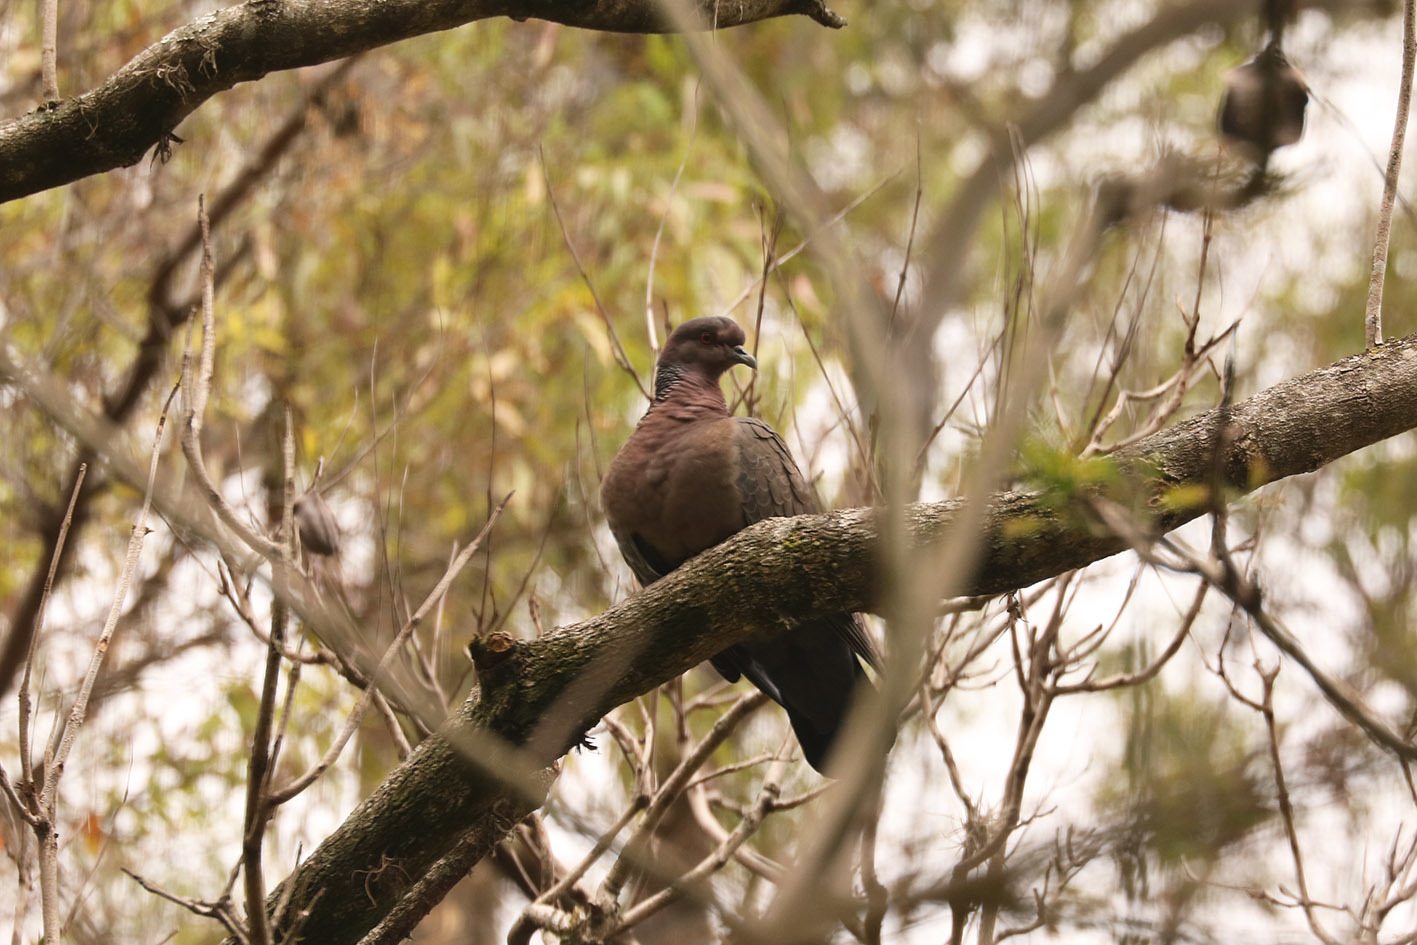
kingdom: Animalia
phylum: Chordata
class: Aves
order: Columbiformes
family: Columbidae
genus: Patagioenas
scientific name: Patagioenas picazuro
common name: Picazuro pigeon
